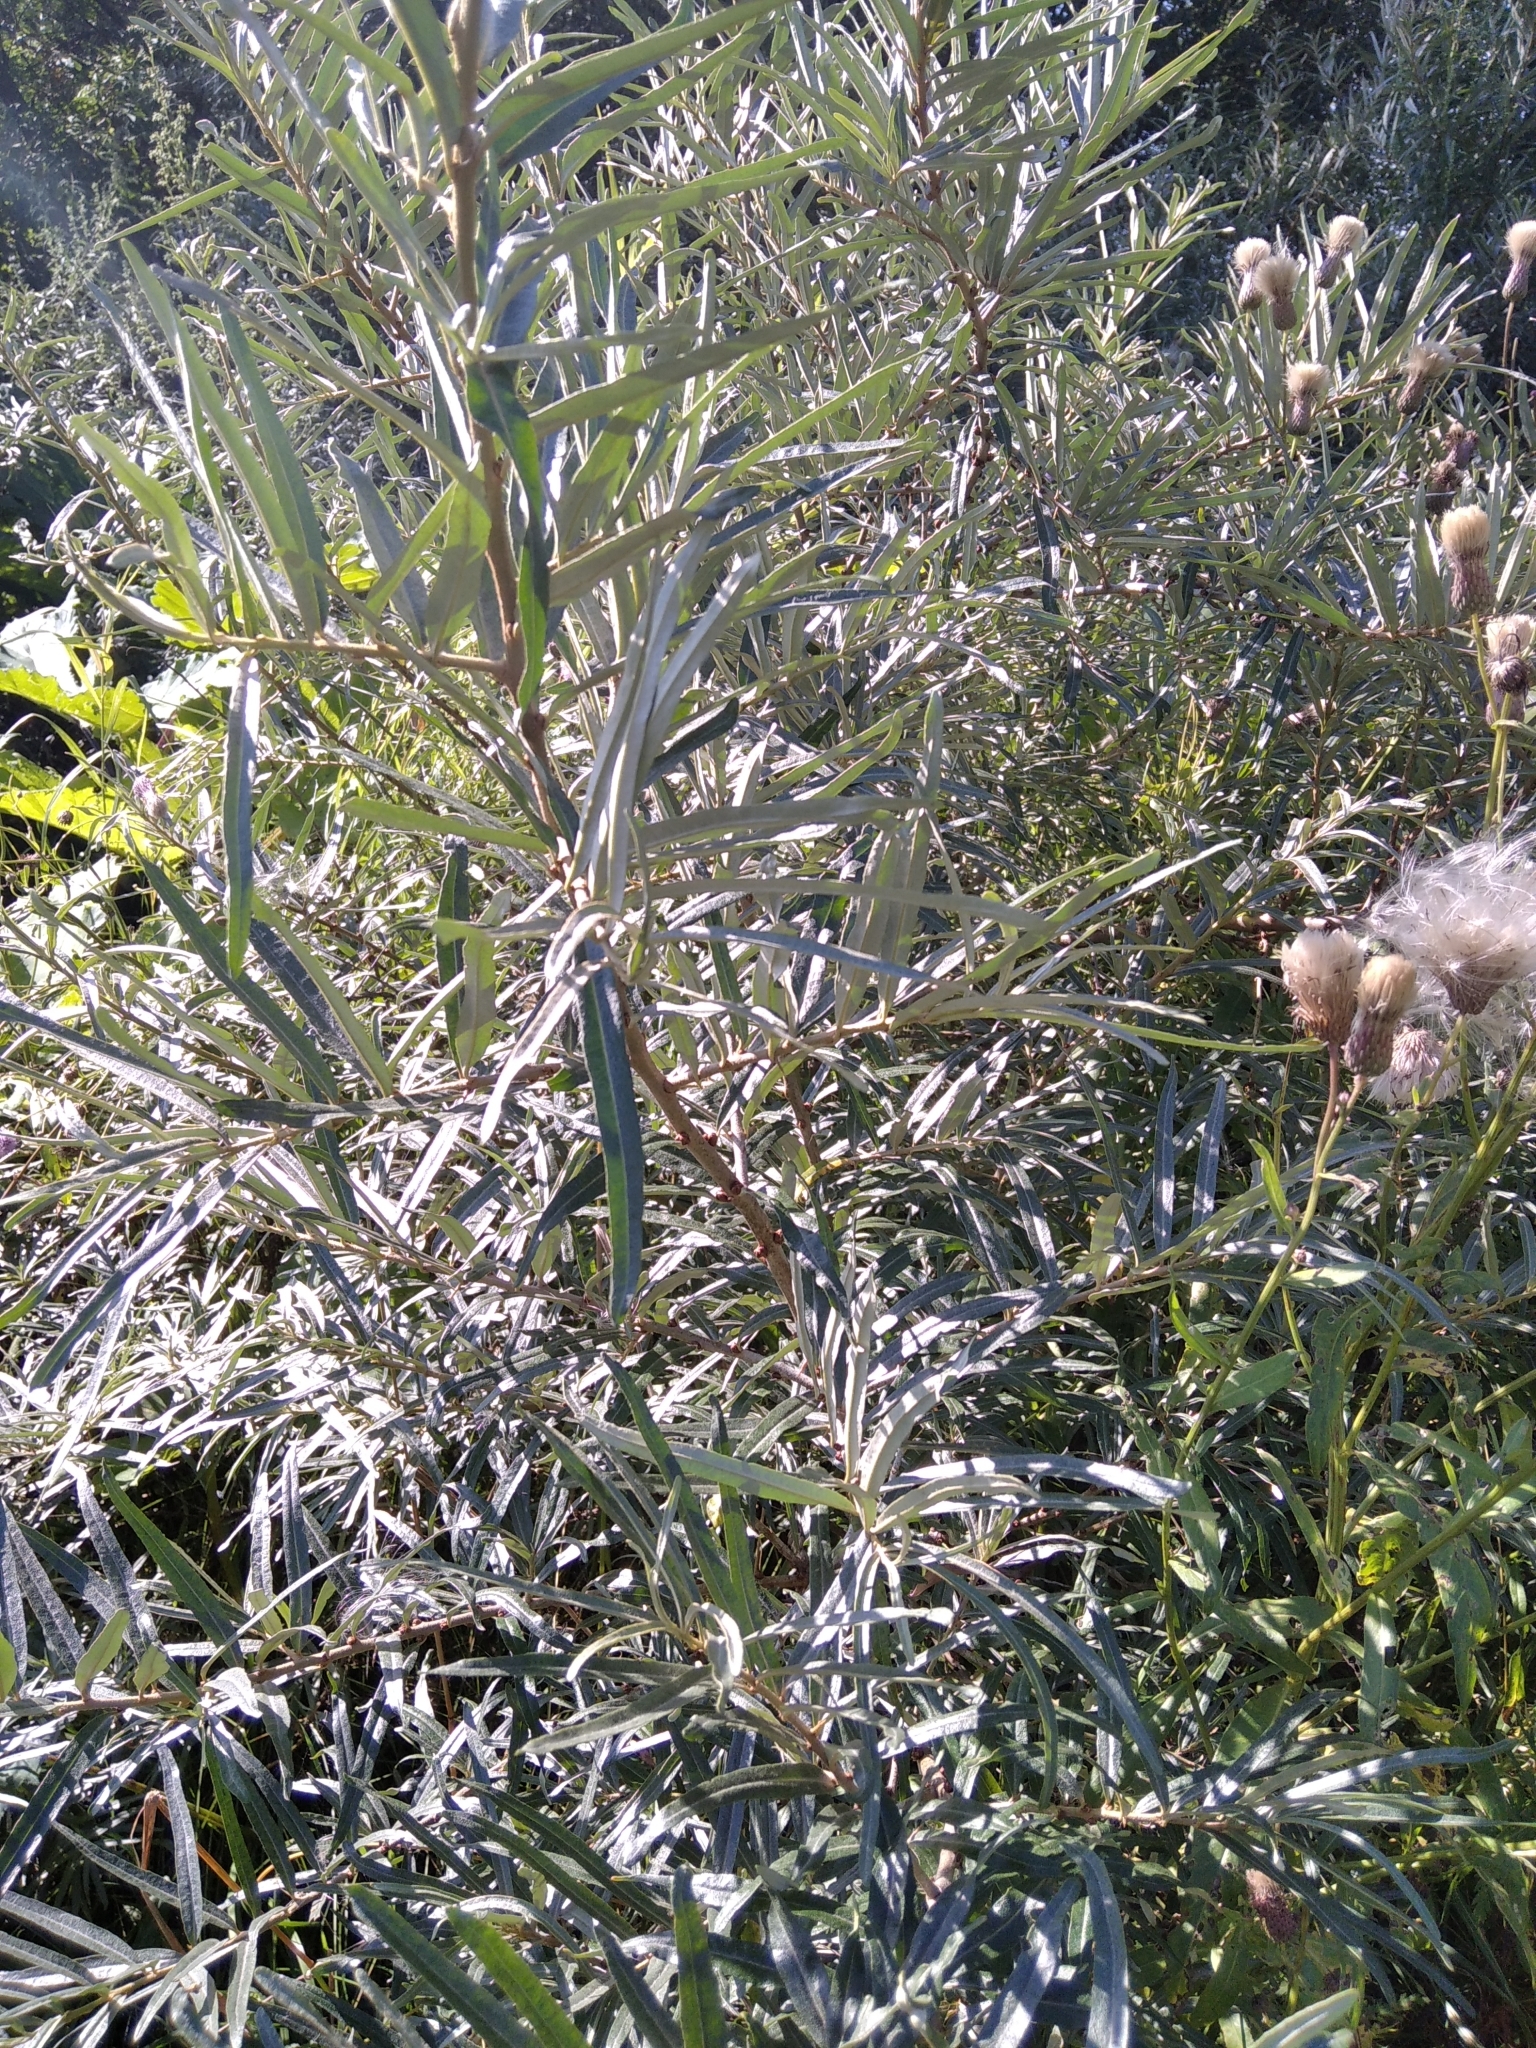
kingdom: Plantae
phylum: Tracheophyta
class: Magnoliopsida
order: Rosales
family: Elaeagnaceae
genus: Hippophae
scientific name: Hippophae rhamnoides
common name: Sea-buckthorn
